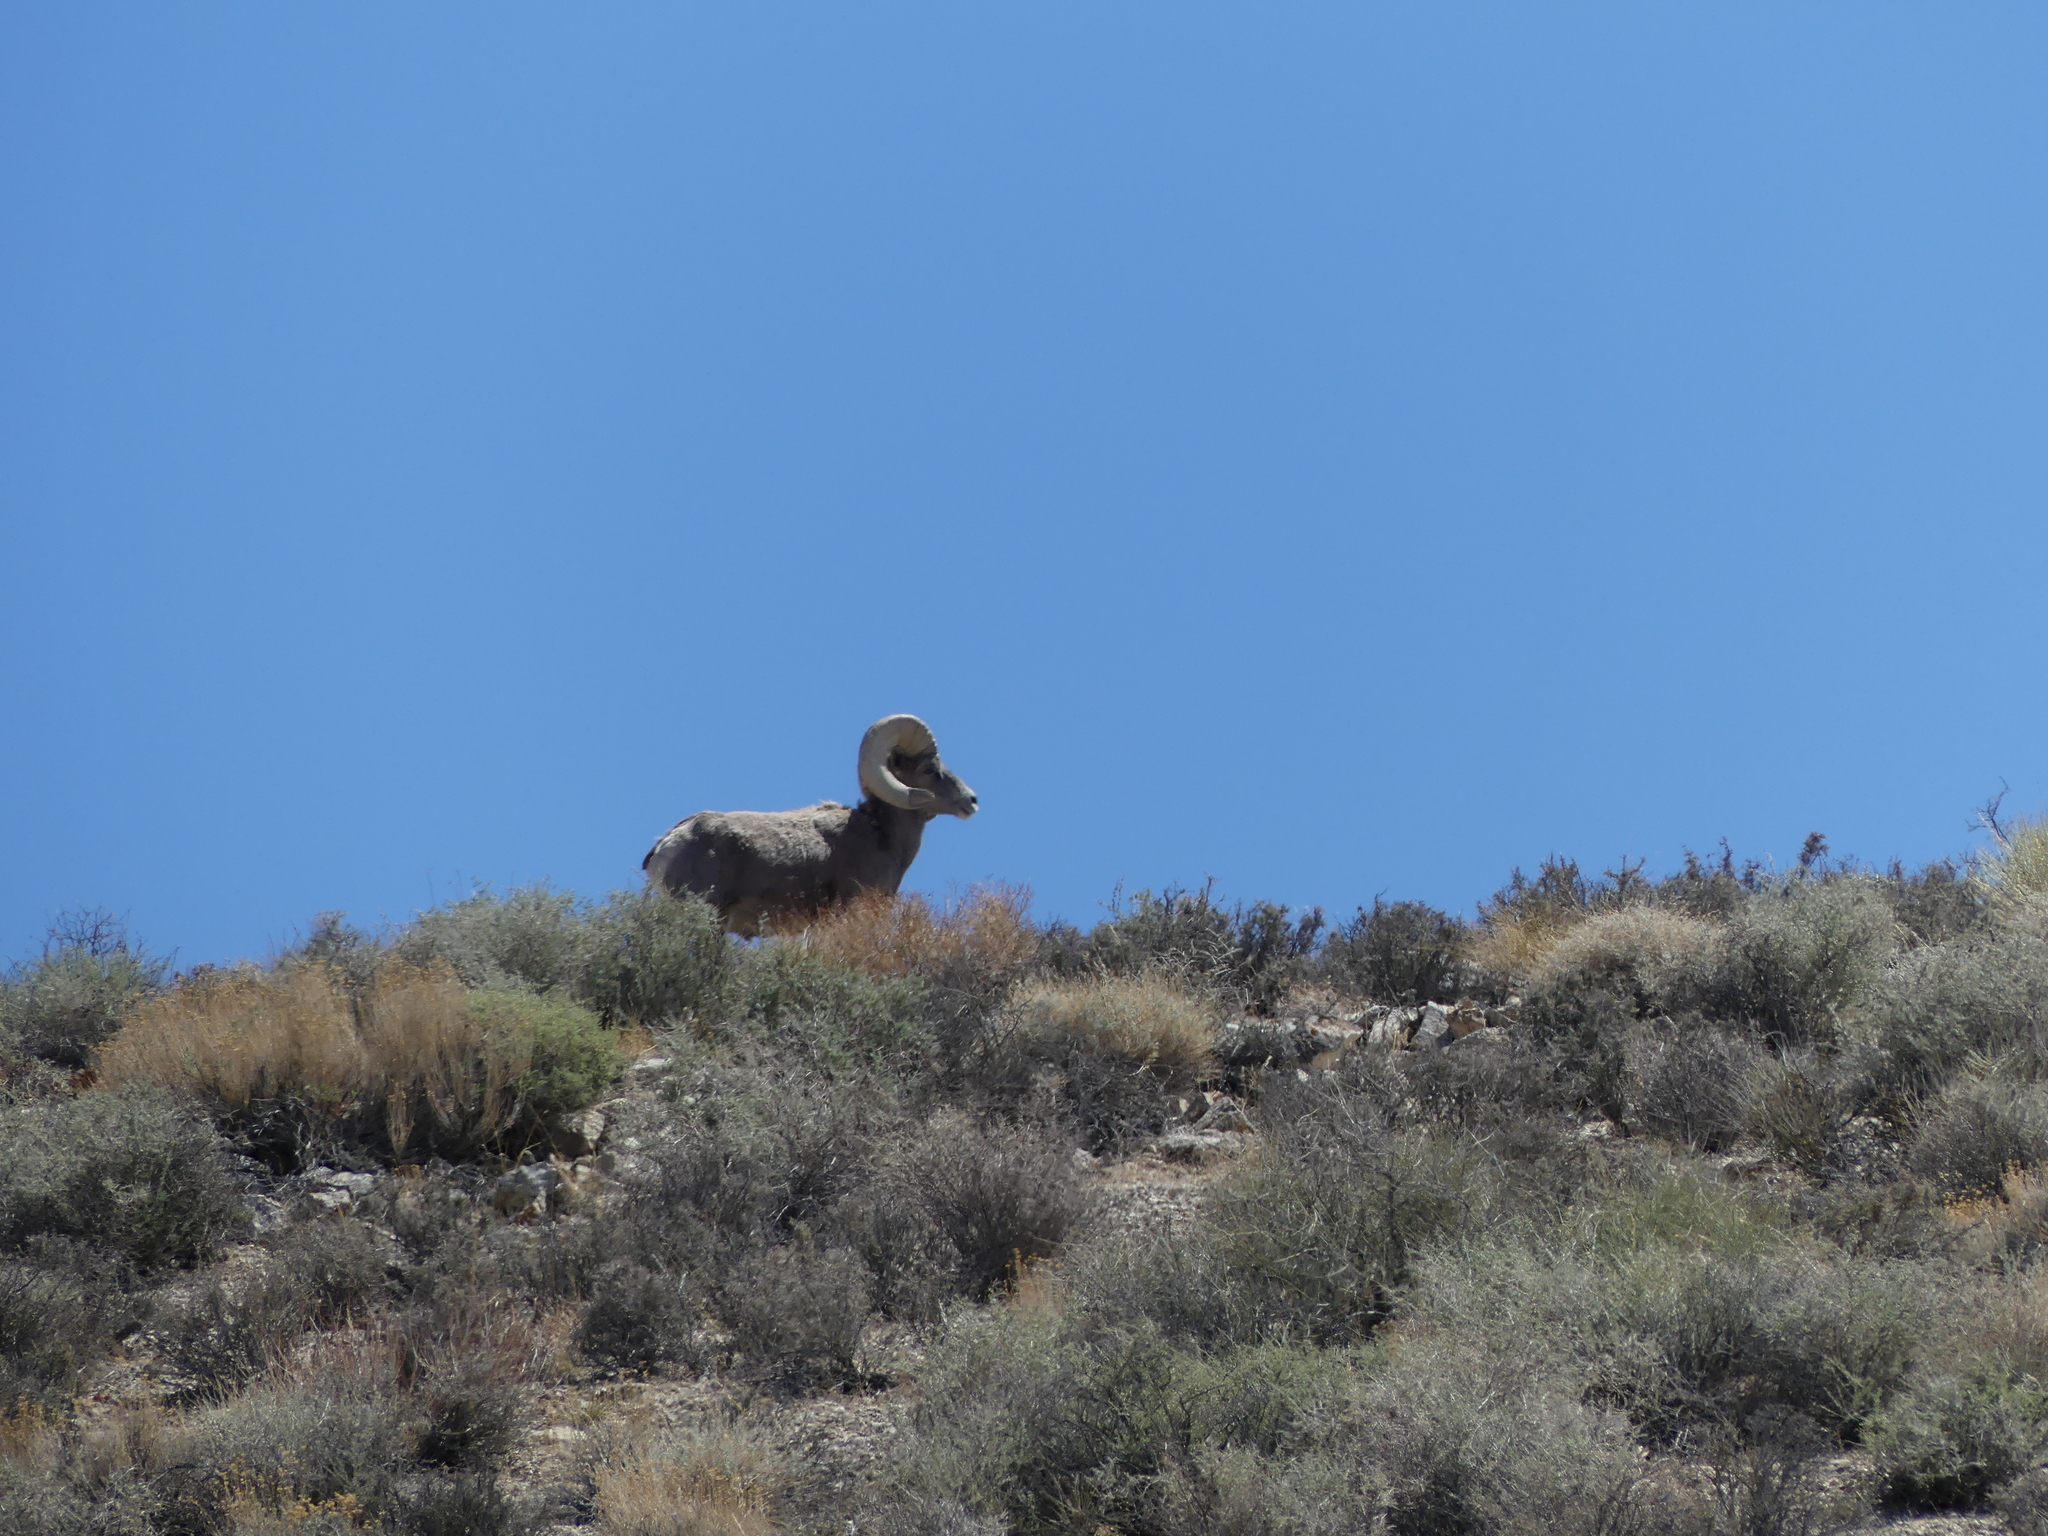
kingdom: Animalia
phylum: Chordata
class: Mammalia
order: Artiodactyla
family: Bovidae
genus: Ovis
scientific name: Ovis canadensis
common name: Bighorn sheep
